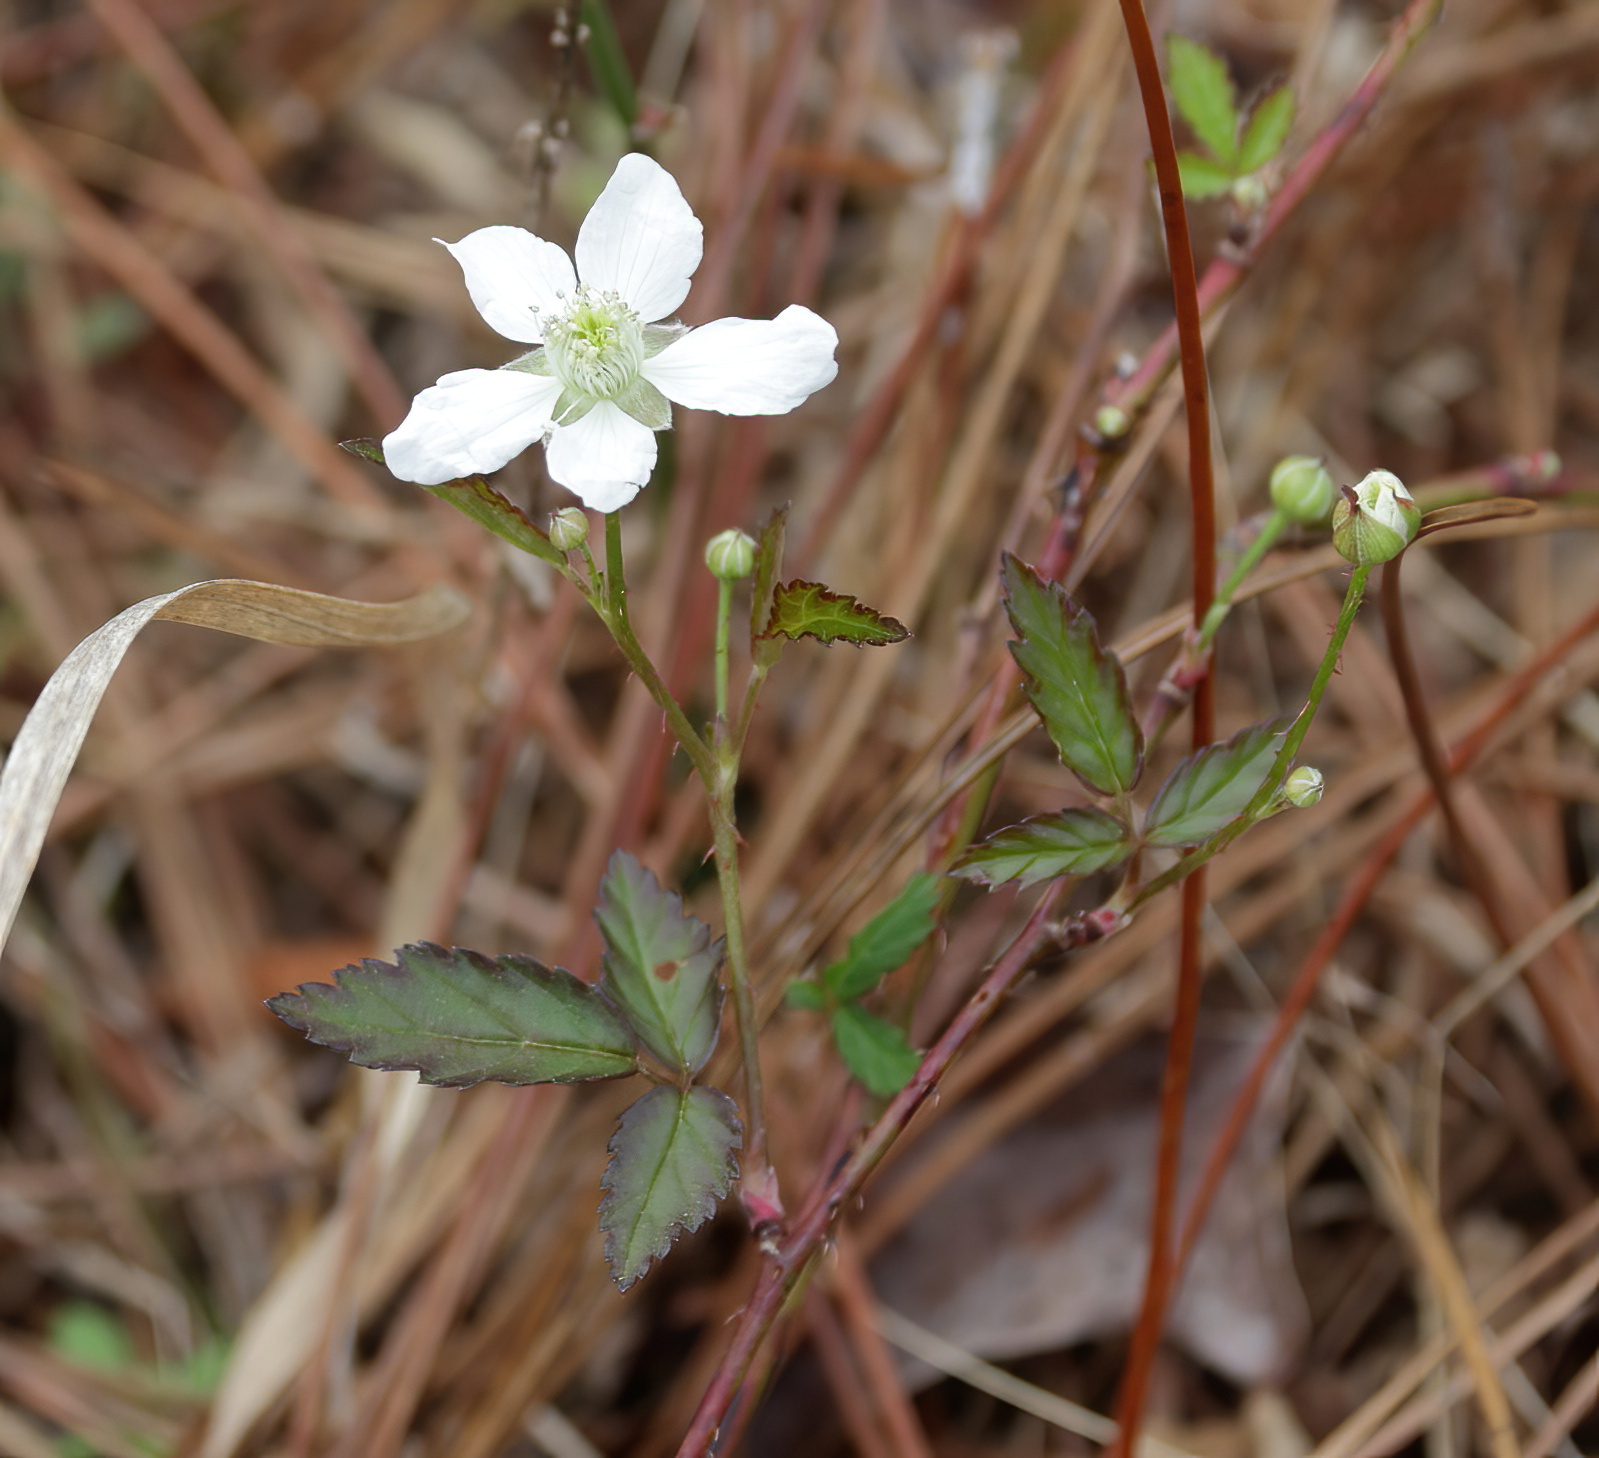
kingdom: Plantae
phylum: Tracheophyta
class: Magnoliopsida
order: Rosales
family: Rosaceae
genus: Rubus
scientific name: Rubus flagellaris
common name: American dewberry
